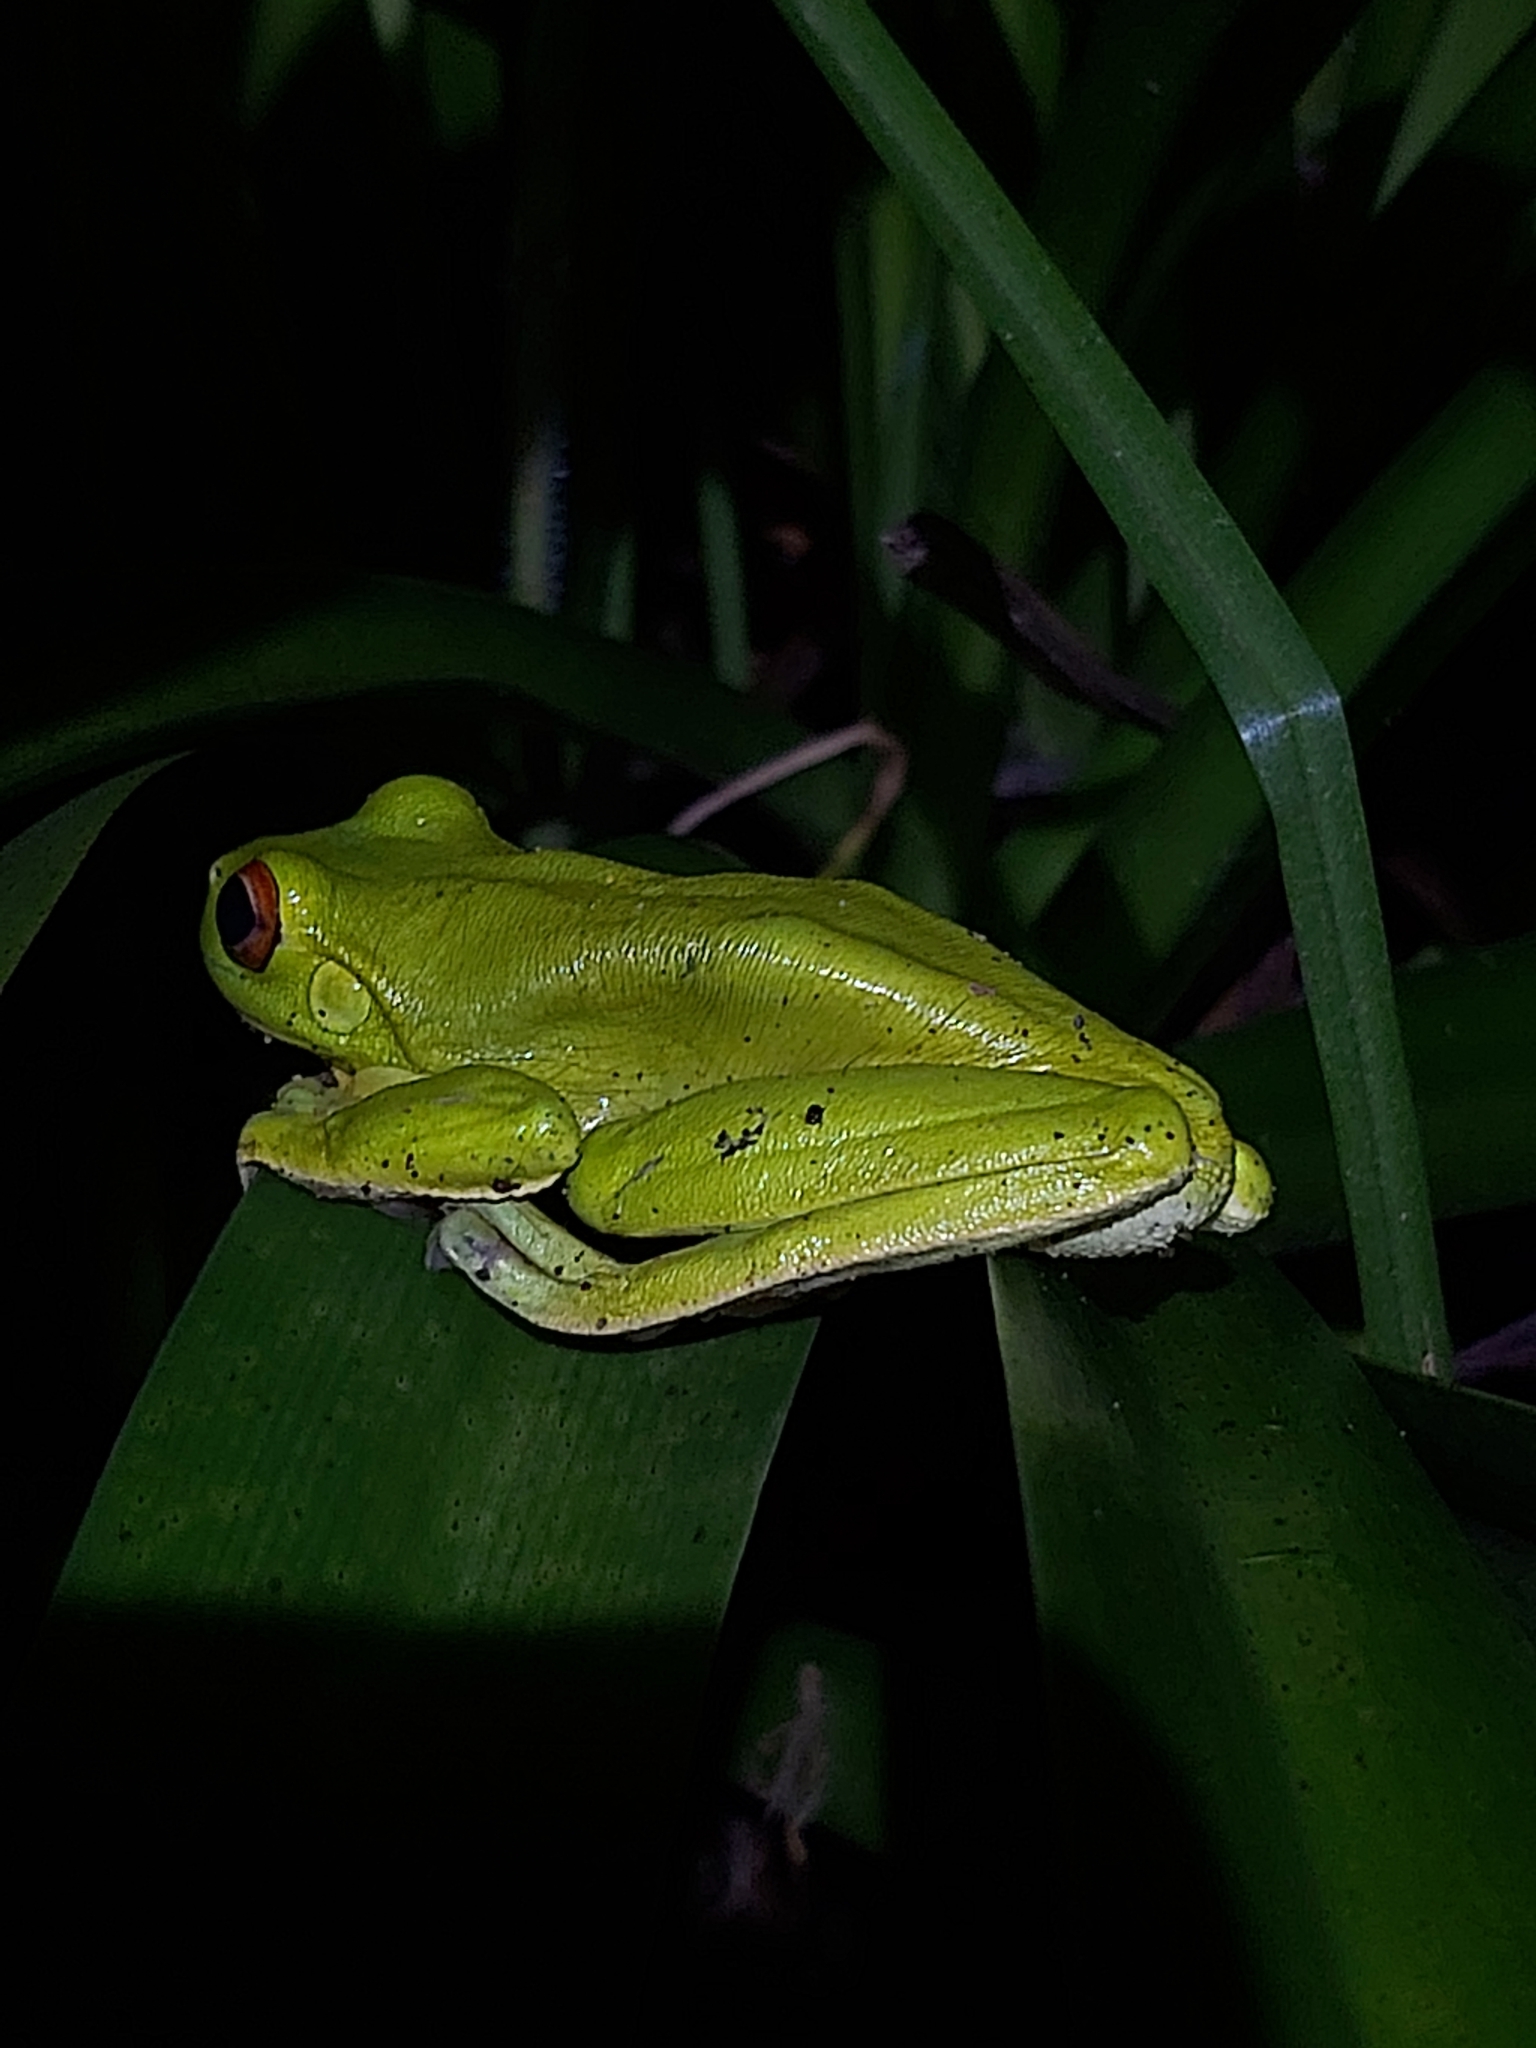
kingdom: Animalia
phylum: Chordata
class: Amphibia
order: Anura
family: Pelodryadidae
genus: Ranoidea
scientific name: Ranoidea chloris
